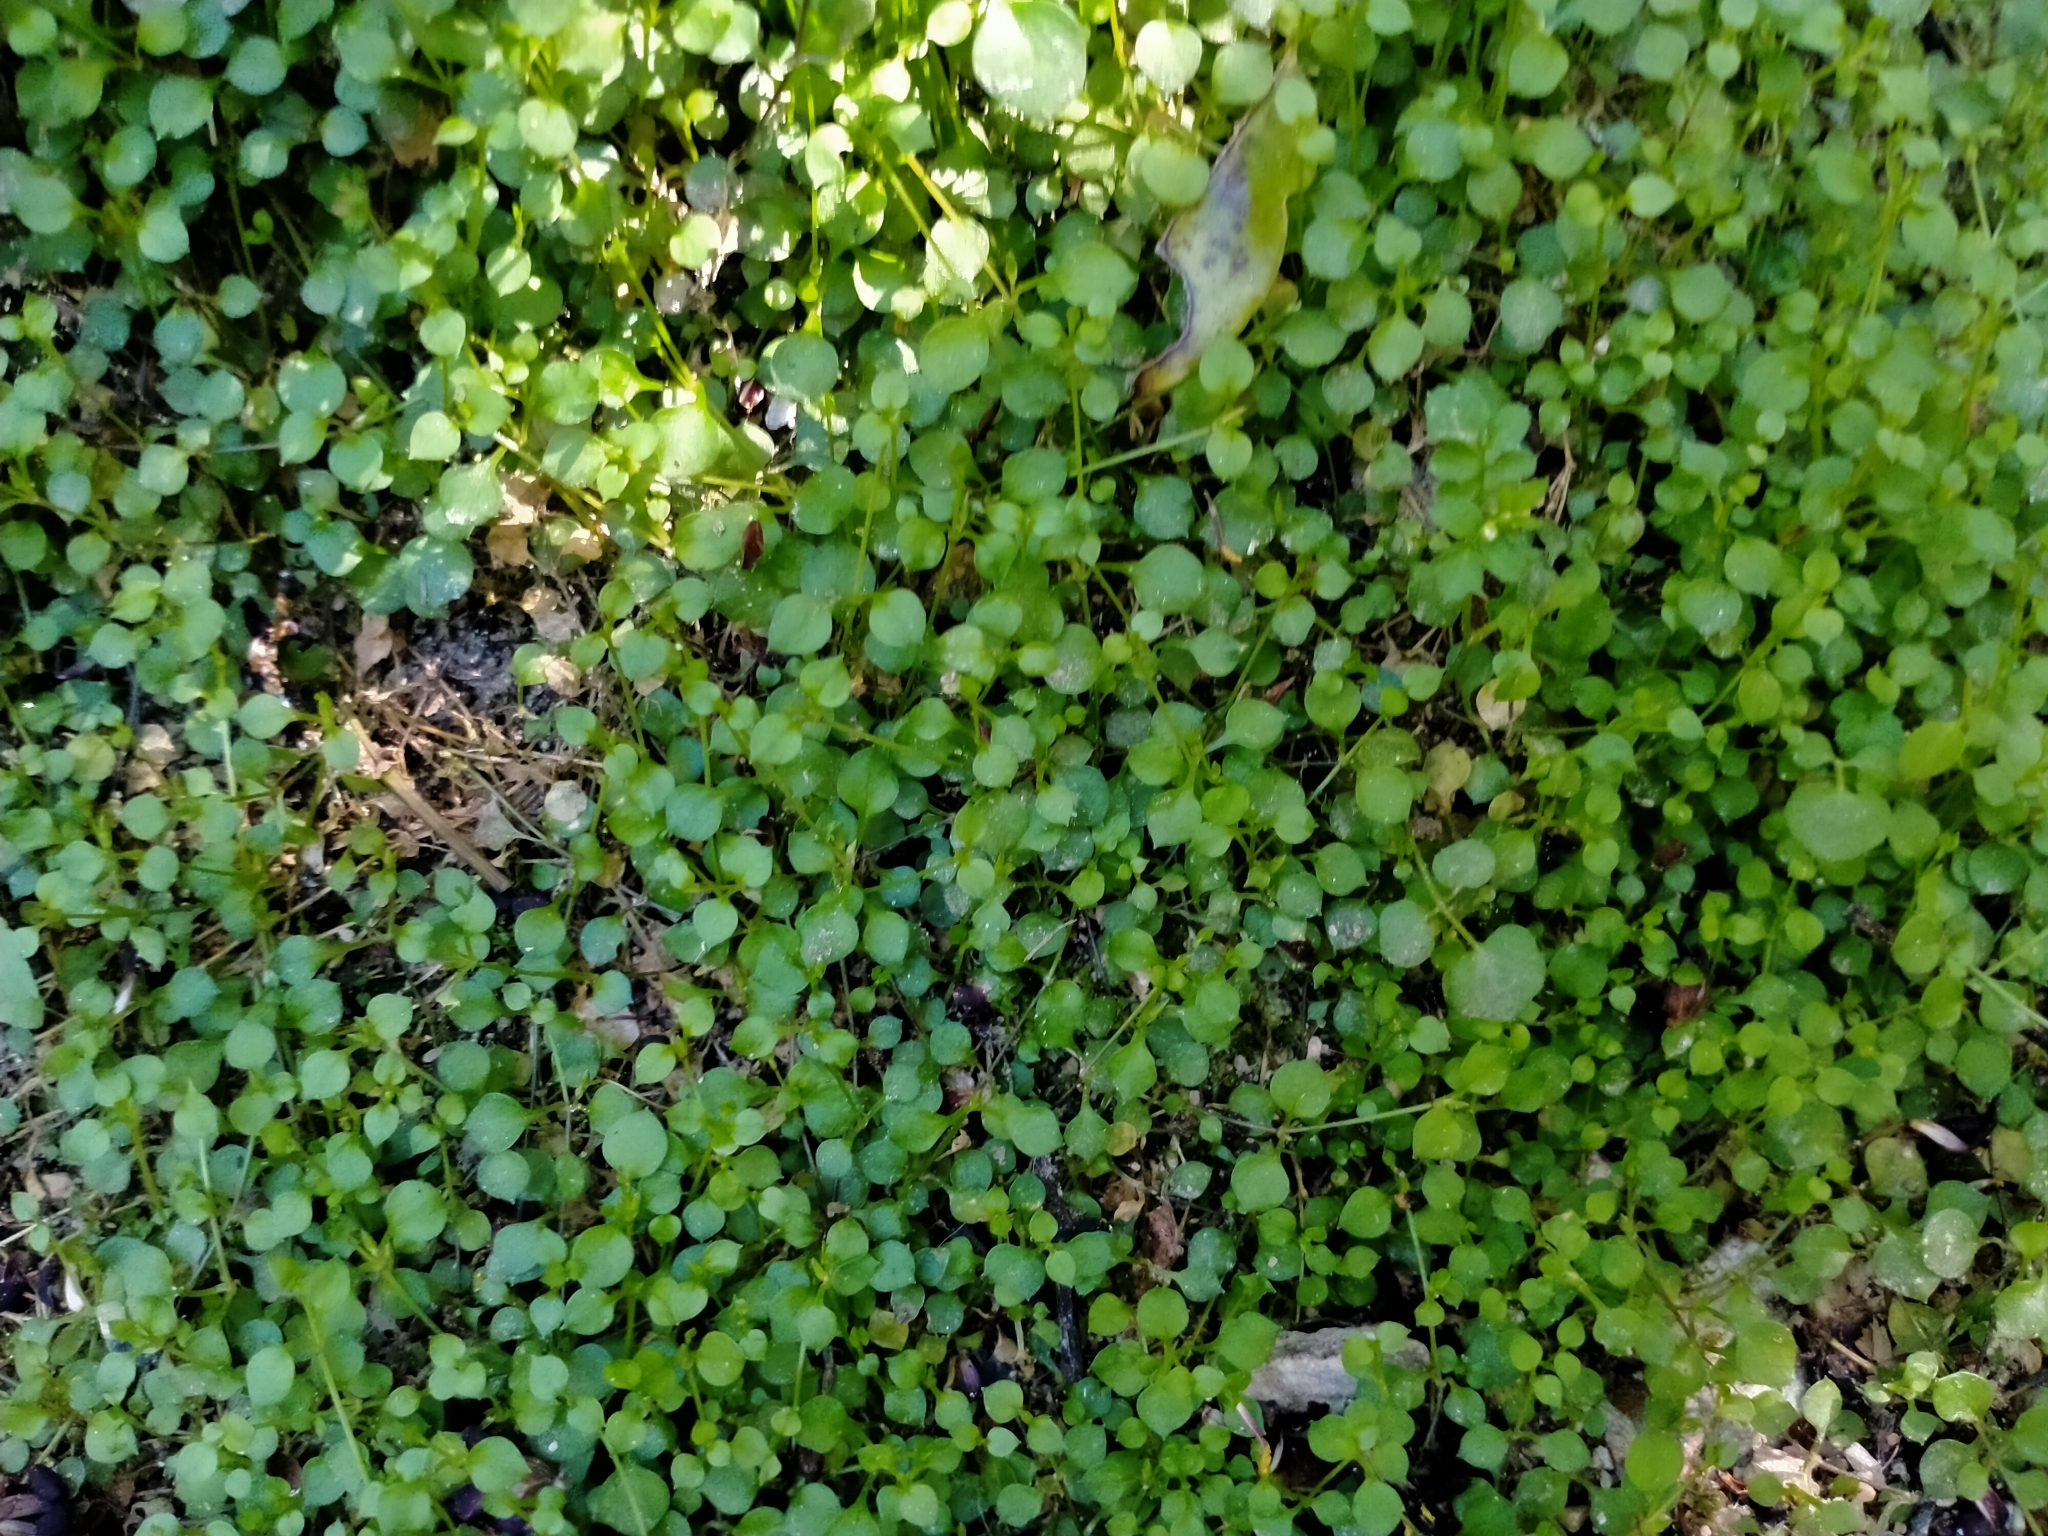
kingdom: Plantae
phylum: Tracheophyta
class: Magnoliopsida
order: Malpighiales
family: Violaceae
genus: Viola
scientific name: Viola filicaulis
